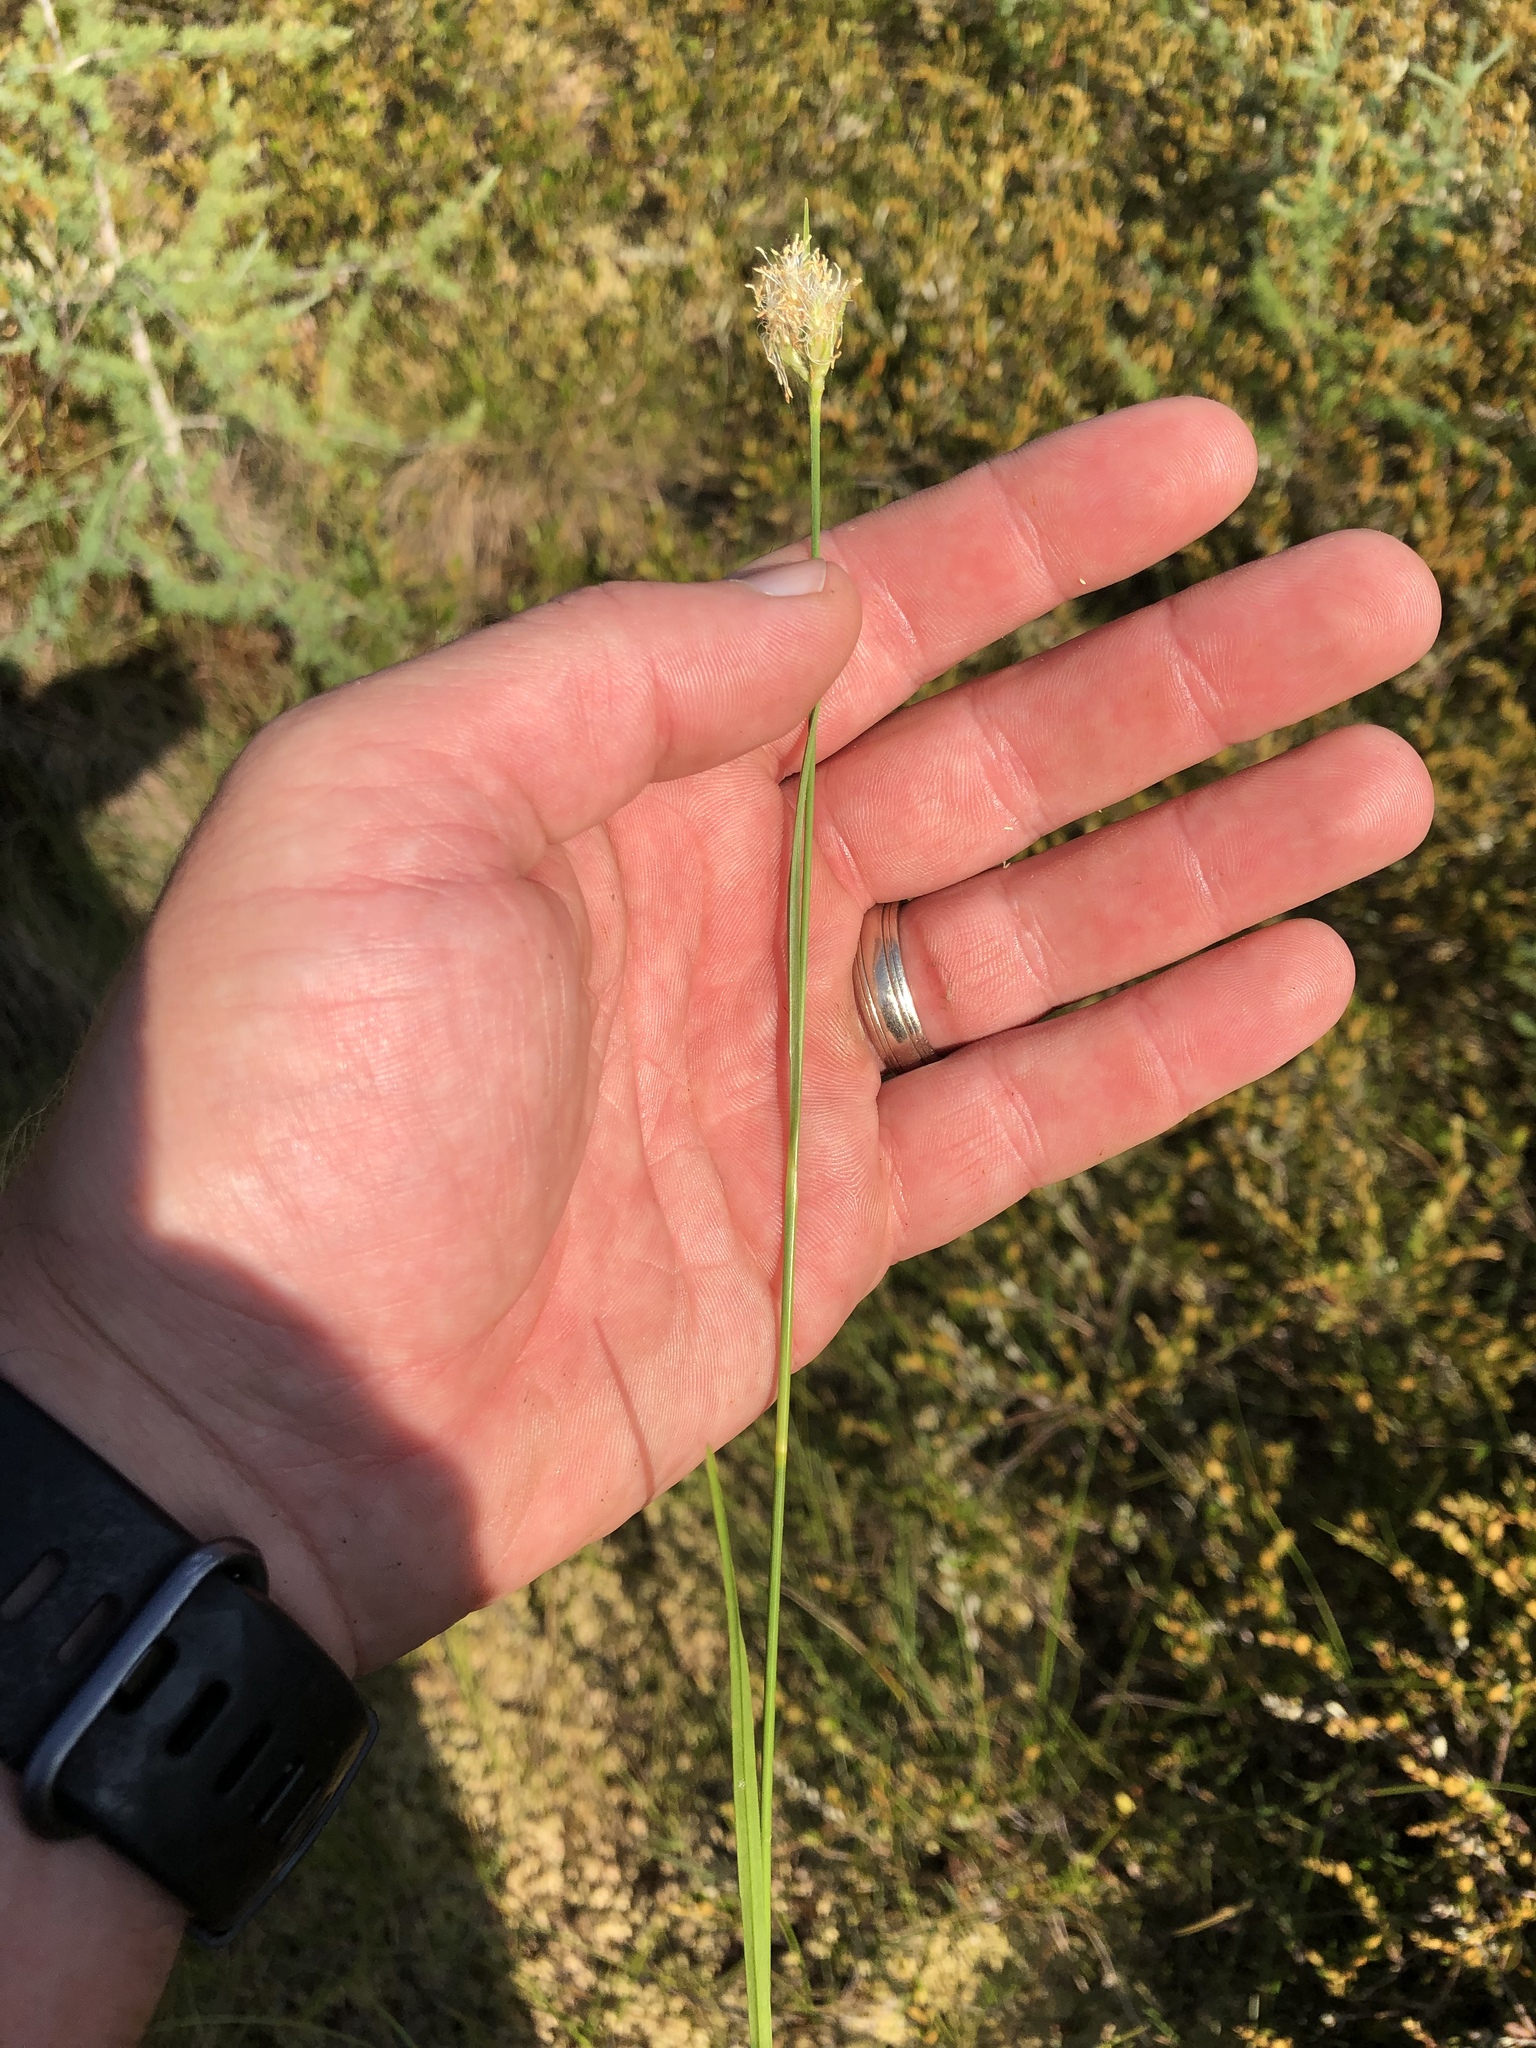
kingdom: Plantae
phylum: Tracheophyta
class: Liliopsida
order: Poales
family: Cyperaceae
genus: Eriophorum
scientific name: Eriophorum virginicum
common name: Tawny cottongrass
